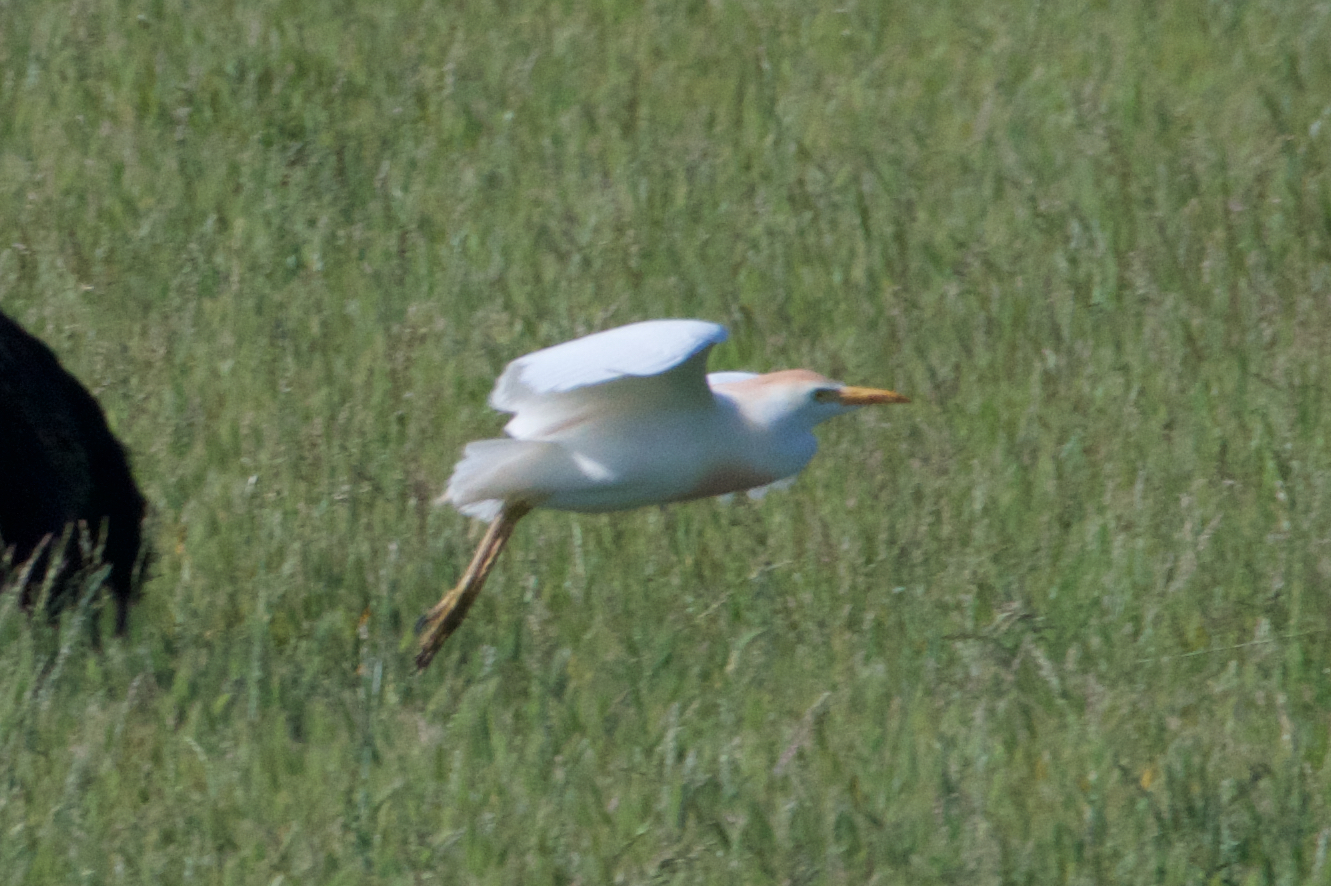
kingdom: Animalia
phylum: Chordata
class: Aves
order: Pelecaniformes
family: Ardeidae
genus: Bubulcus
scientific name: Bubulcus ibis
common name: Cattle egret
